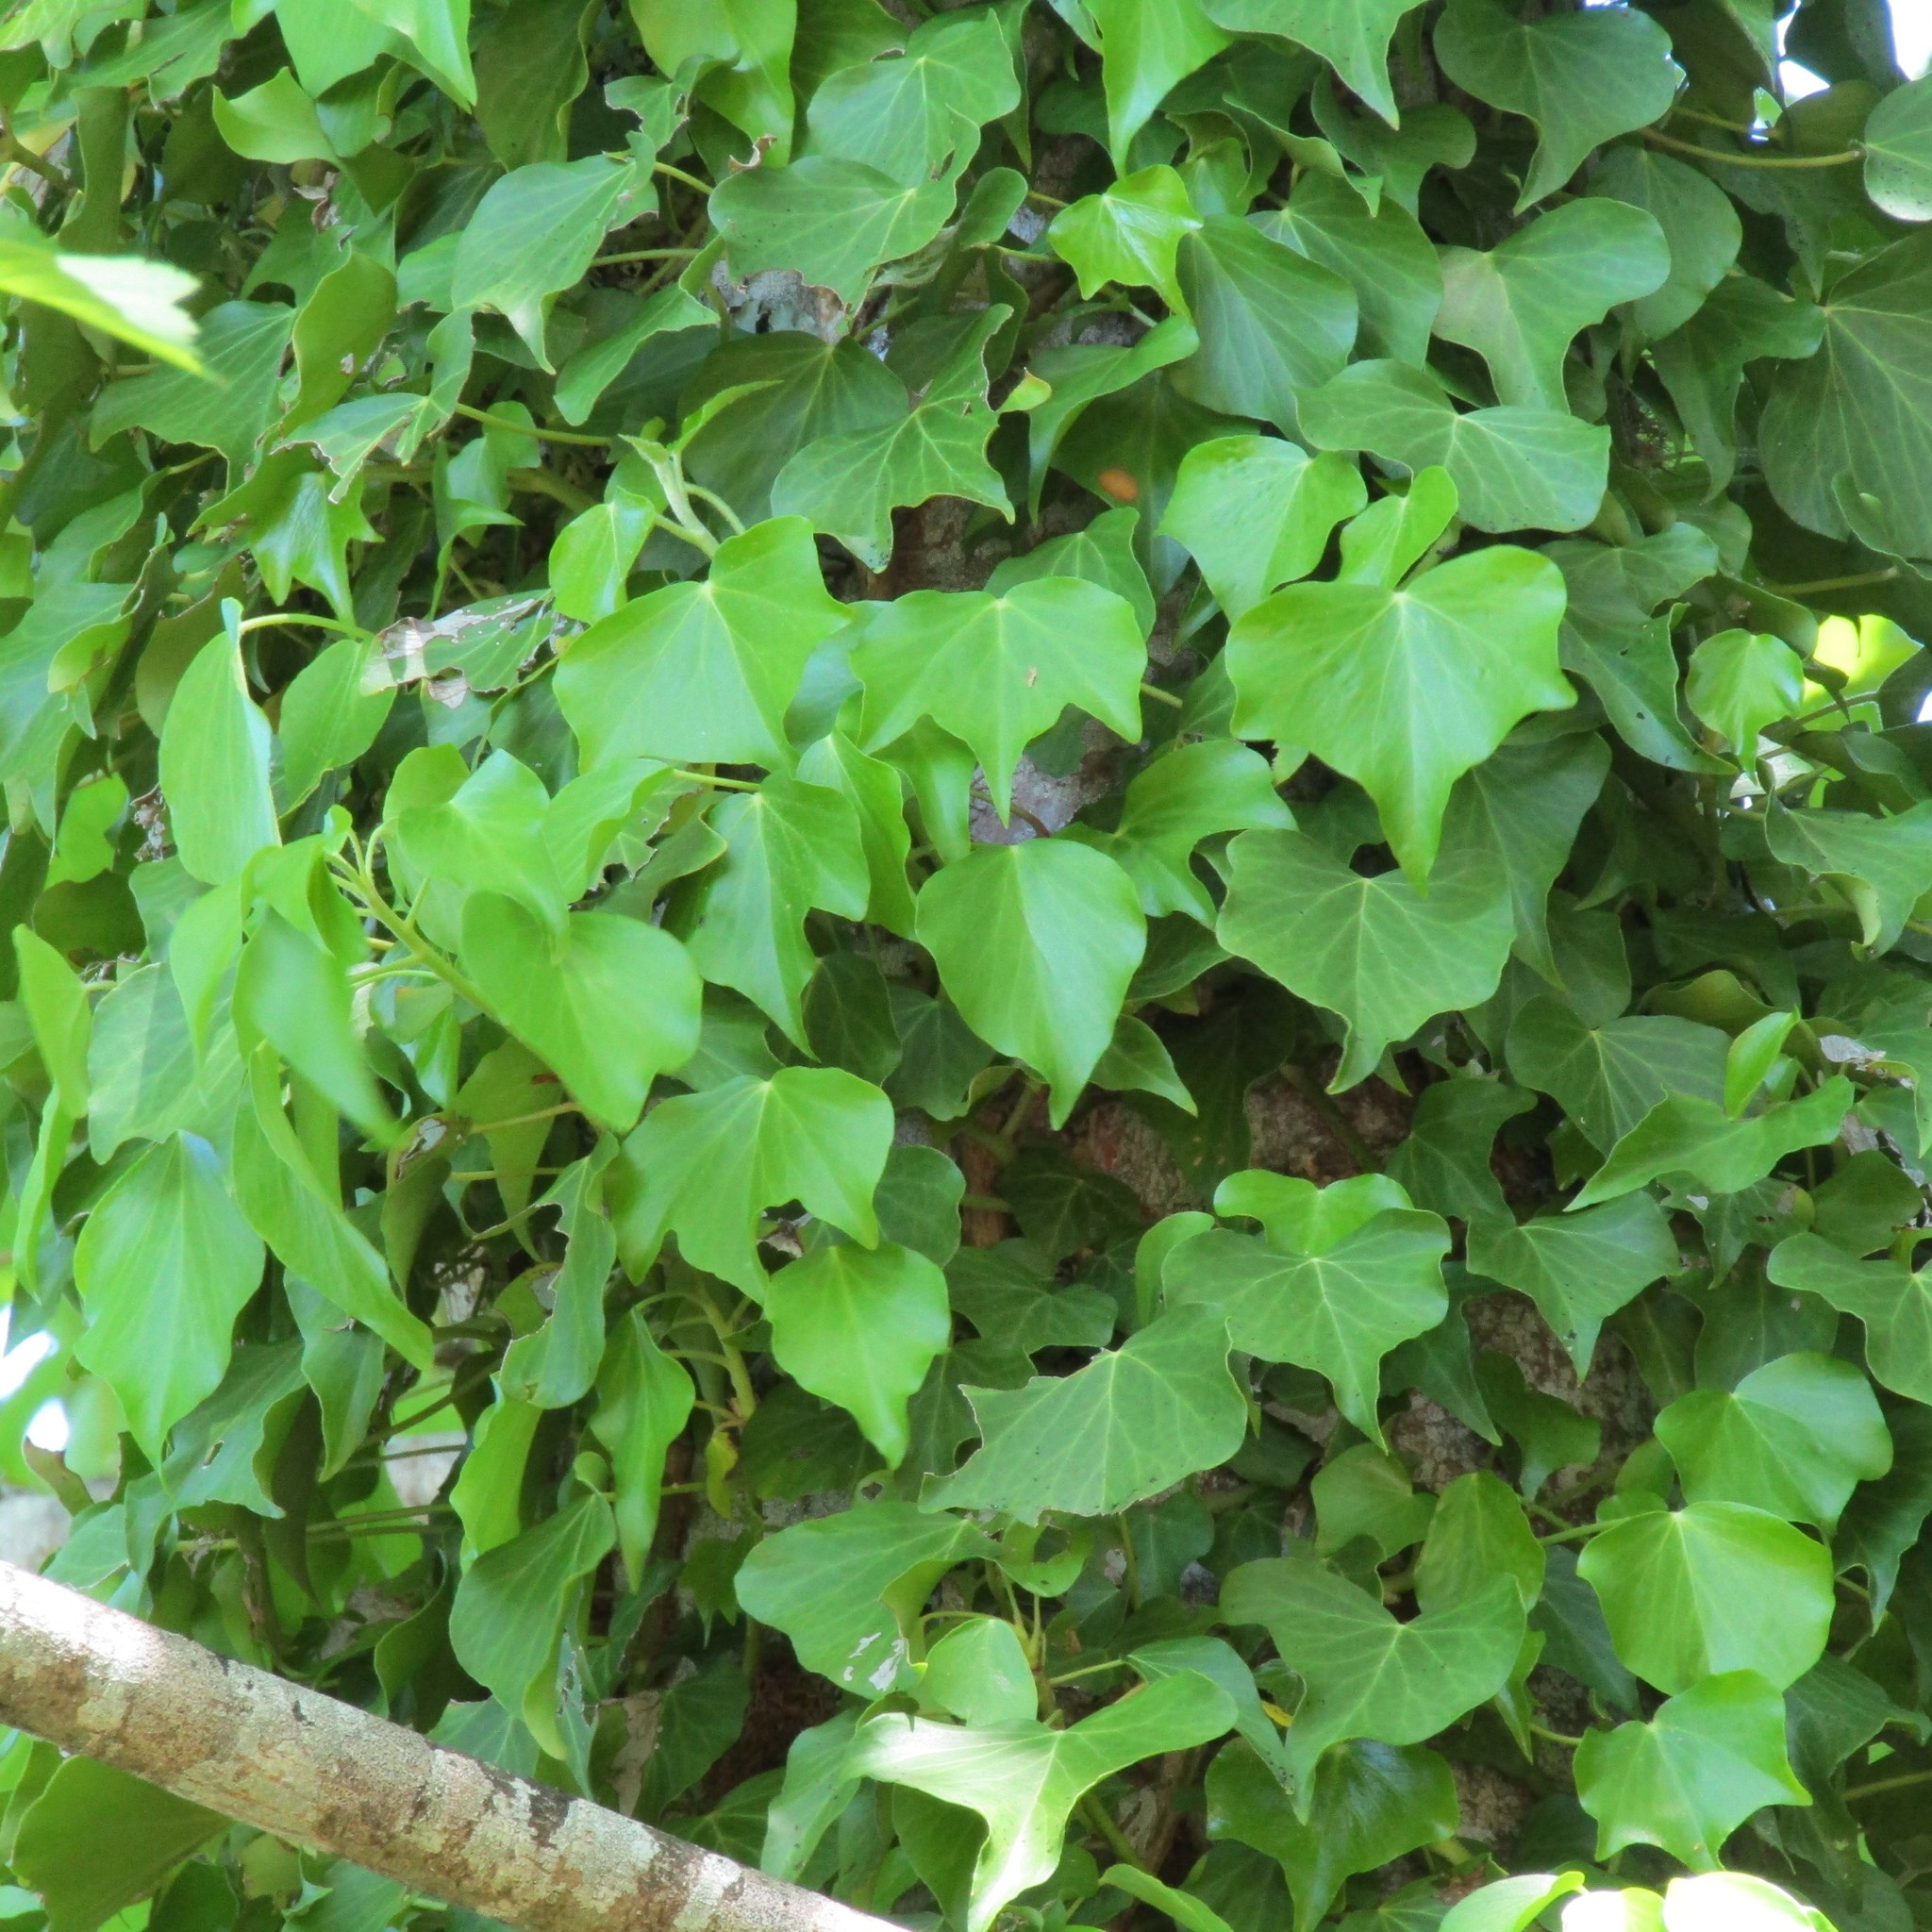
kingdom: Plantae
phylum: Tracheophyta
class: Magnoliopsida
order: Apiales
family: Araliaceae
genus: Hedera
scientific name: Hedera helix
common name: Ivy
